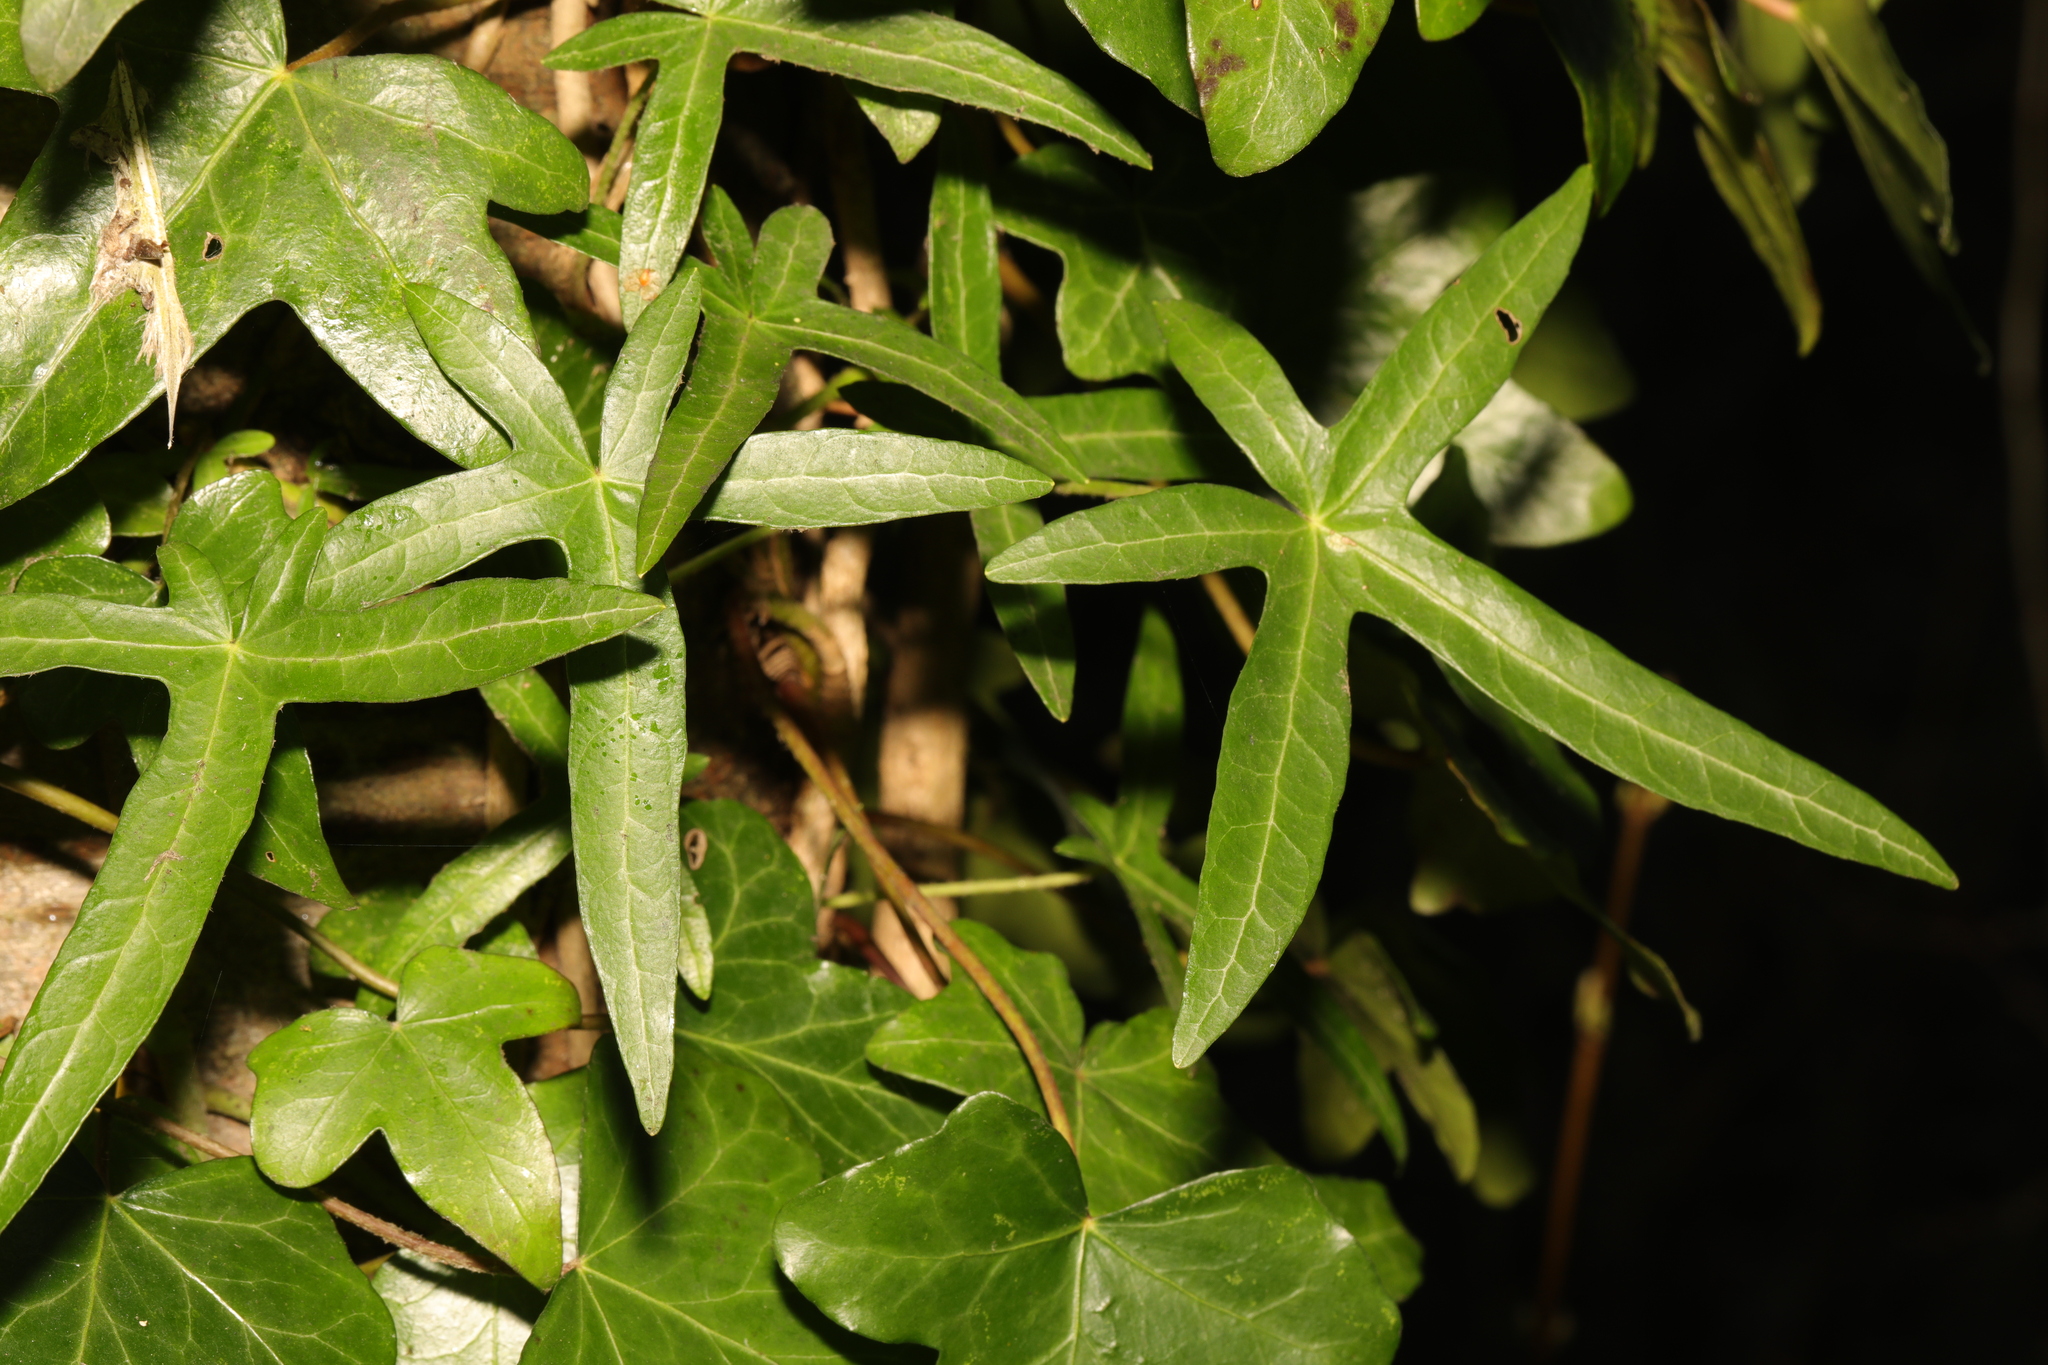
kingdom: Plantae
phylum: Tracheophyta
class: Magnoliopsida
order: Apiales
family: Araliaceae
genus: Hedera
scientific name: Hedera helix
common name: Ivy
